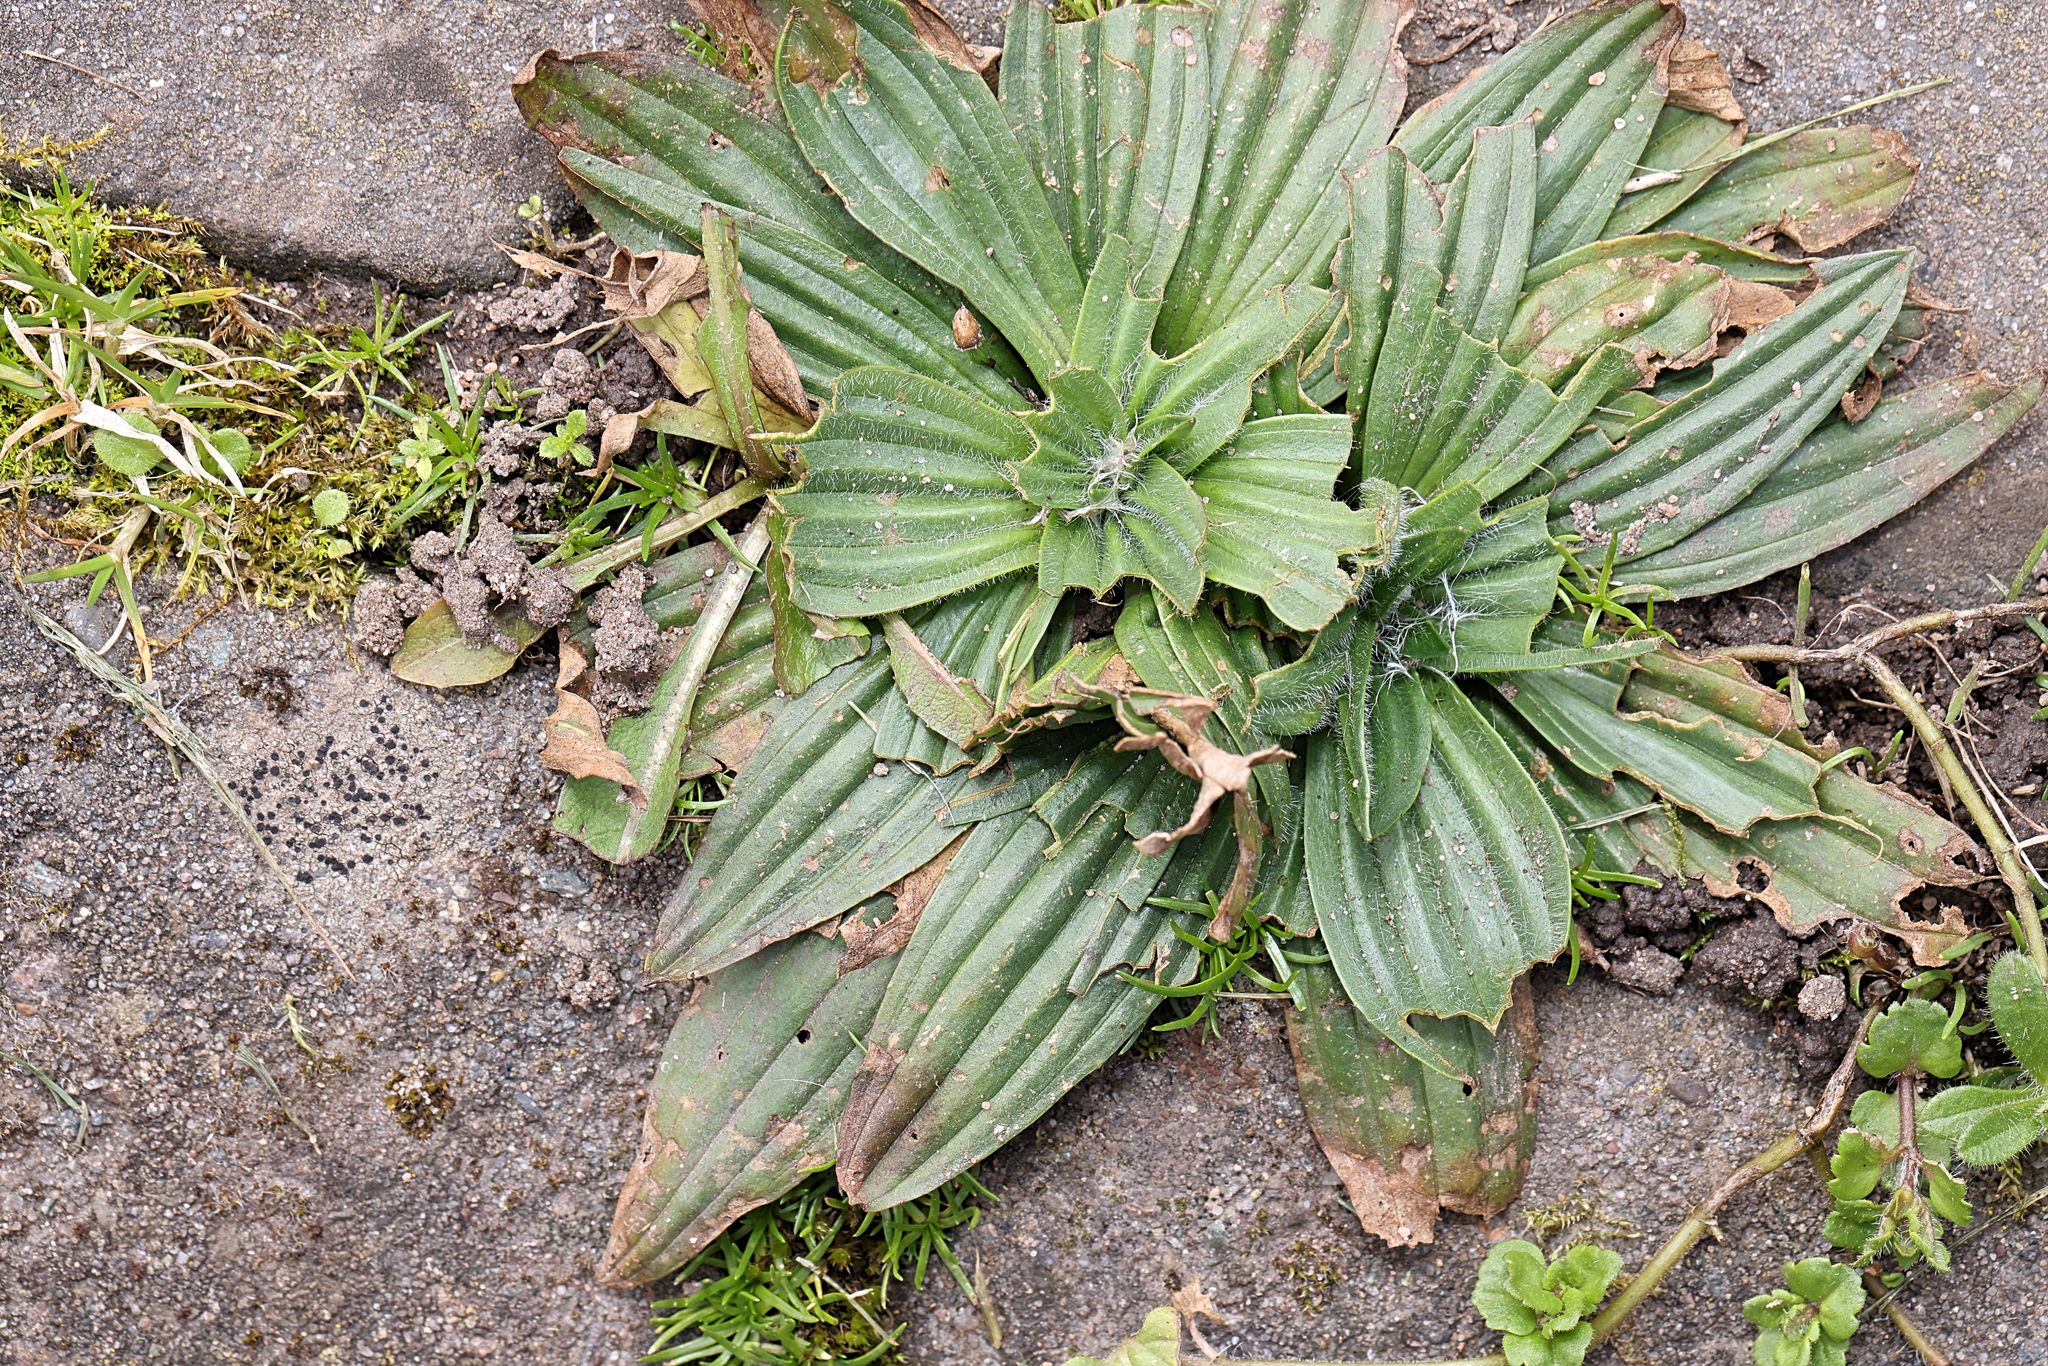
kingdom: Plantae
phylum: Tracheophyta
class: Magnoliopsida
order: Lamiales
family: Plantaginaceae
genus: Plantago
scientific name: Plantago lanceolata
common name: Ribwort plantain
